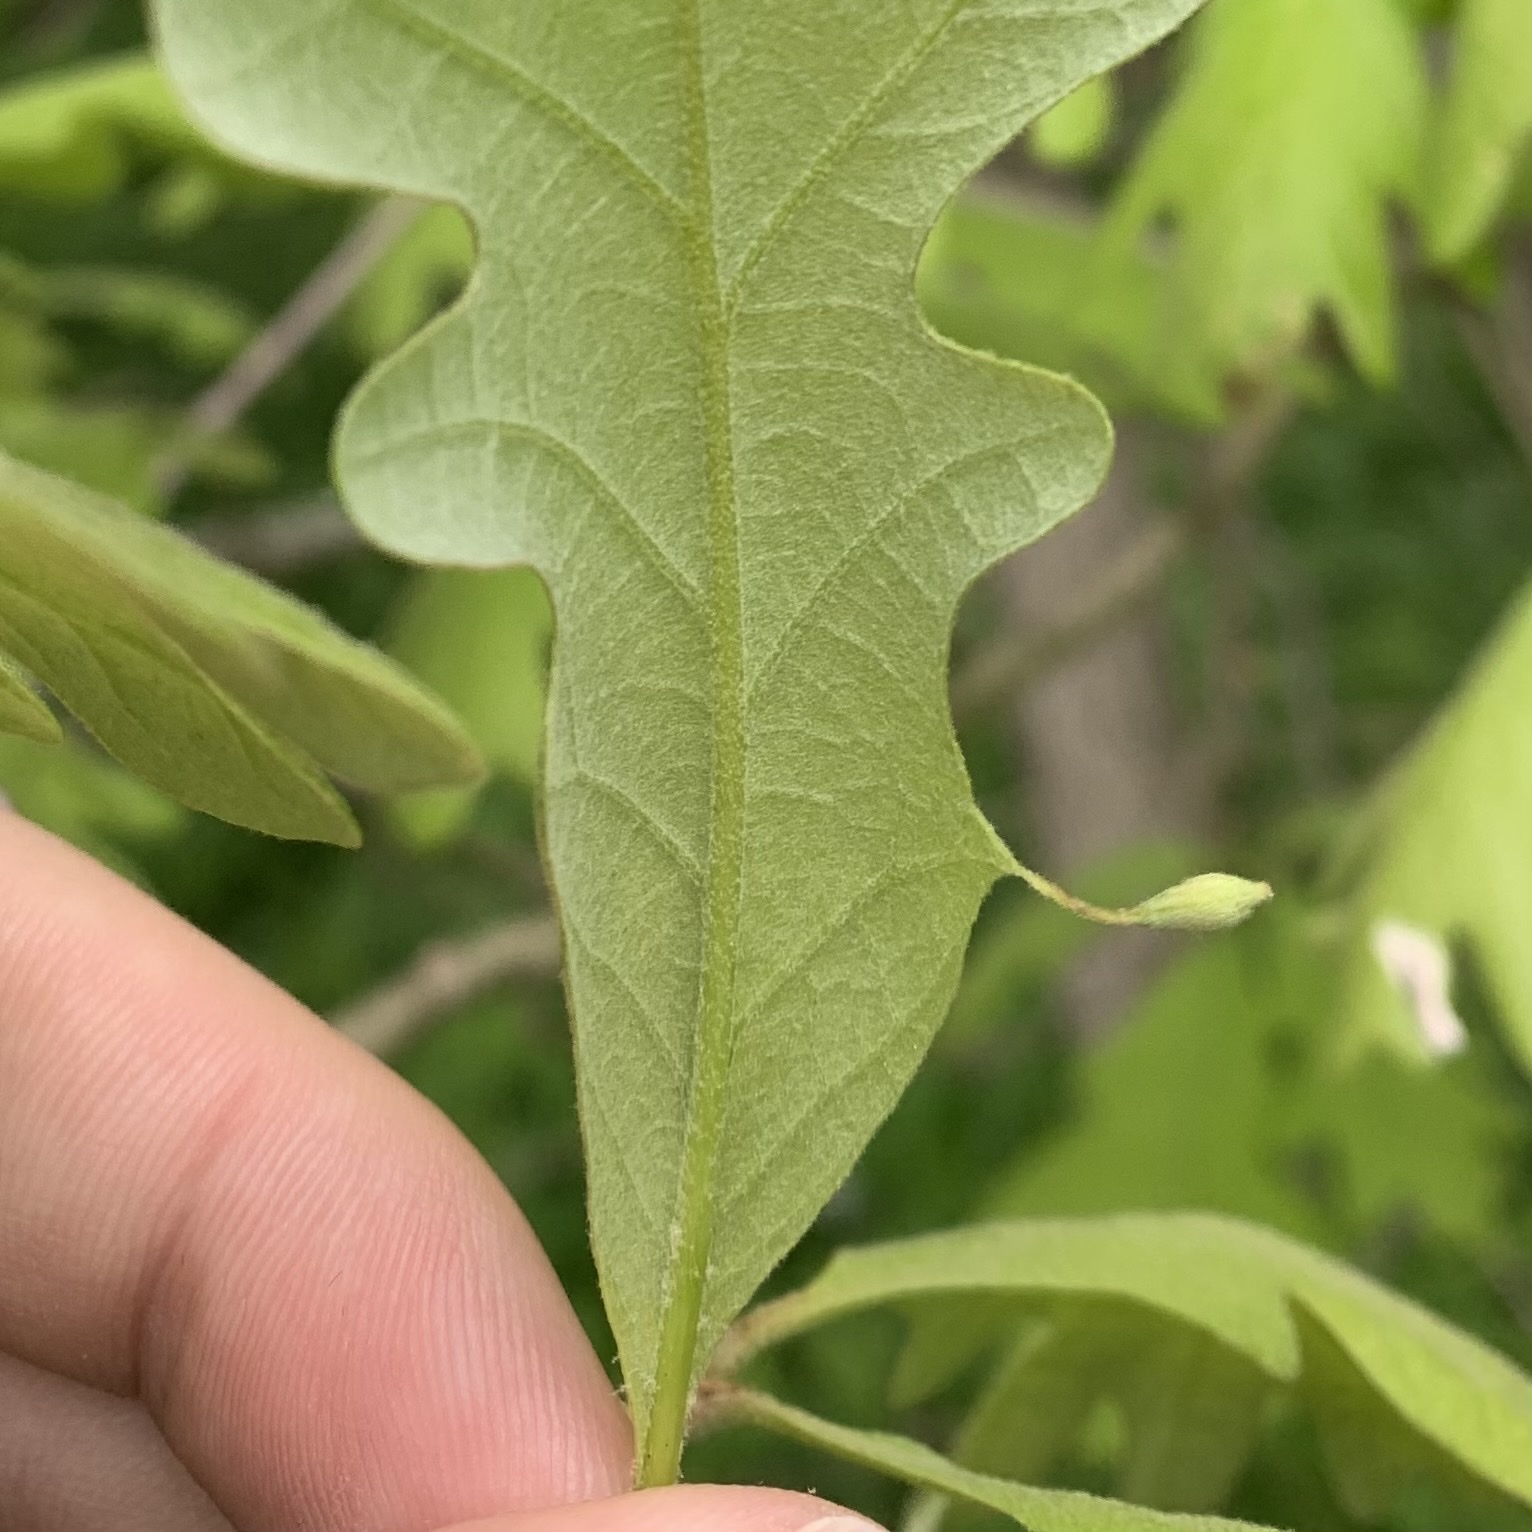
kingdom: Animalia
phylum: Arthropoda
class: Insecta
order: Hymenoptera
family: Cynipidae
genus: Andricus
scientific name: Andricus
